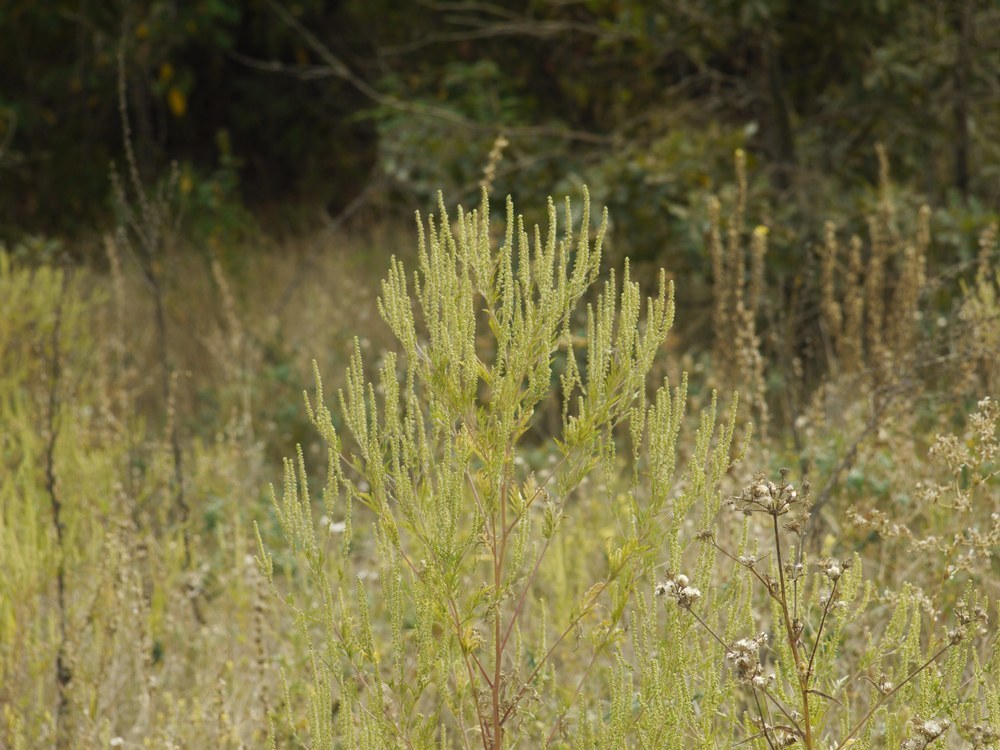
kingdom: Plantae
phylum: Tracheophyta
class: Magnoliopsida
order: Asterales
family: Asteraceae
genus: Ambrosia
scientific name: Ambrosia artemisiifolia
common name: Annual ragweed
